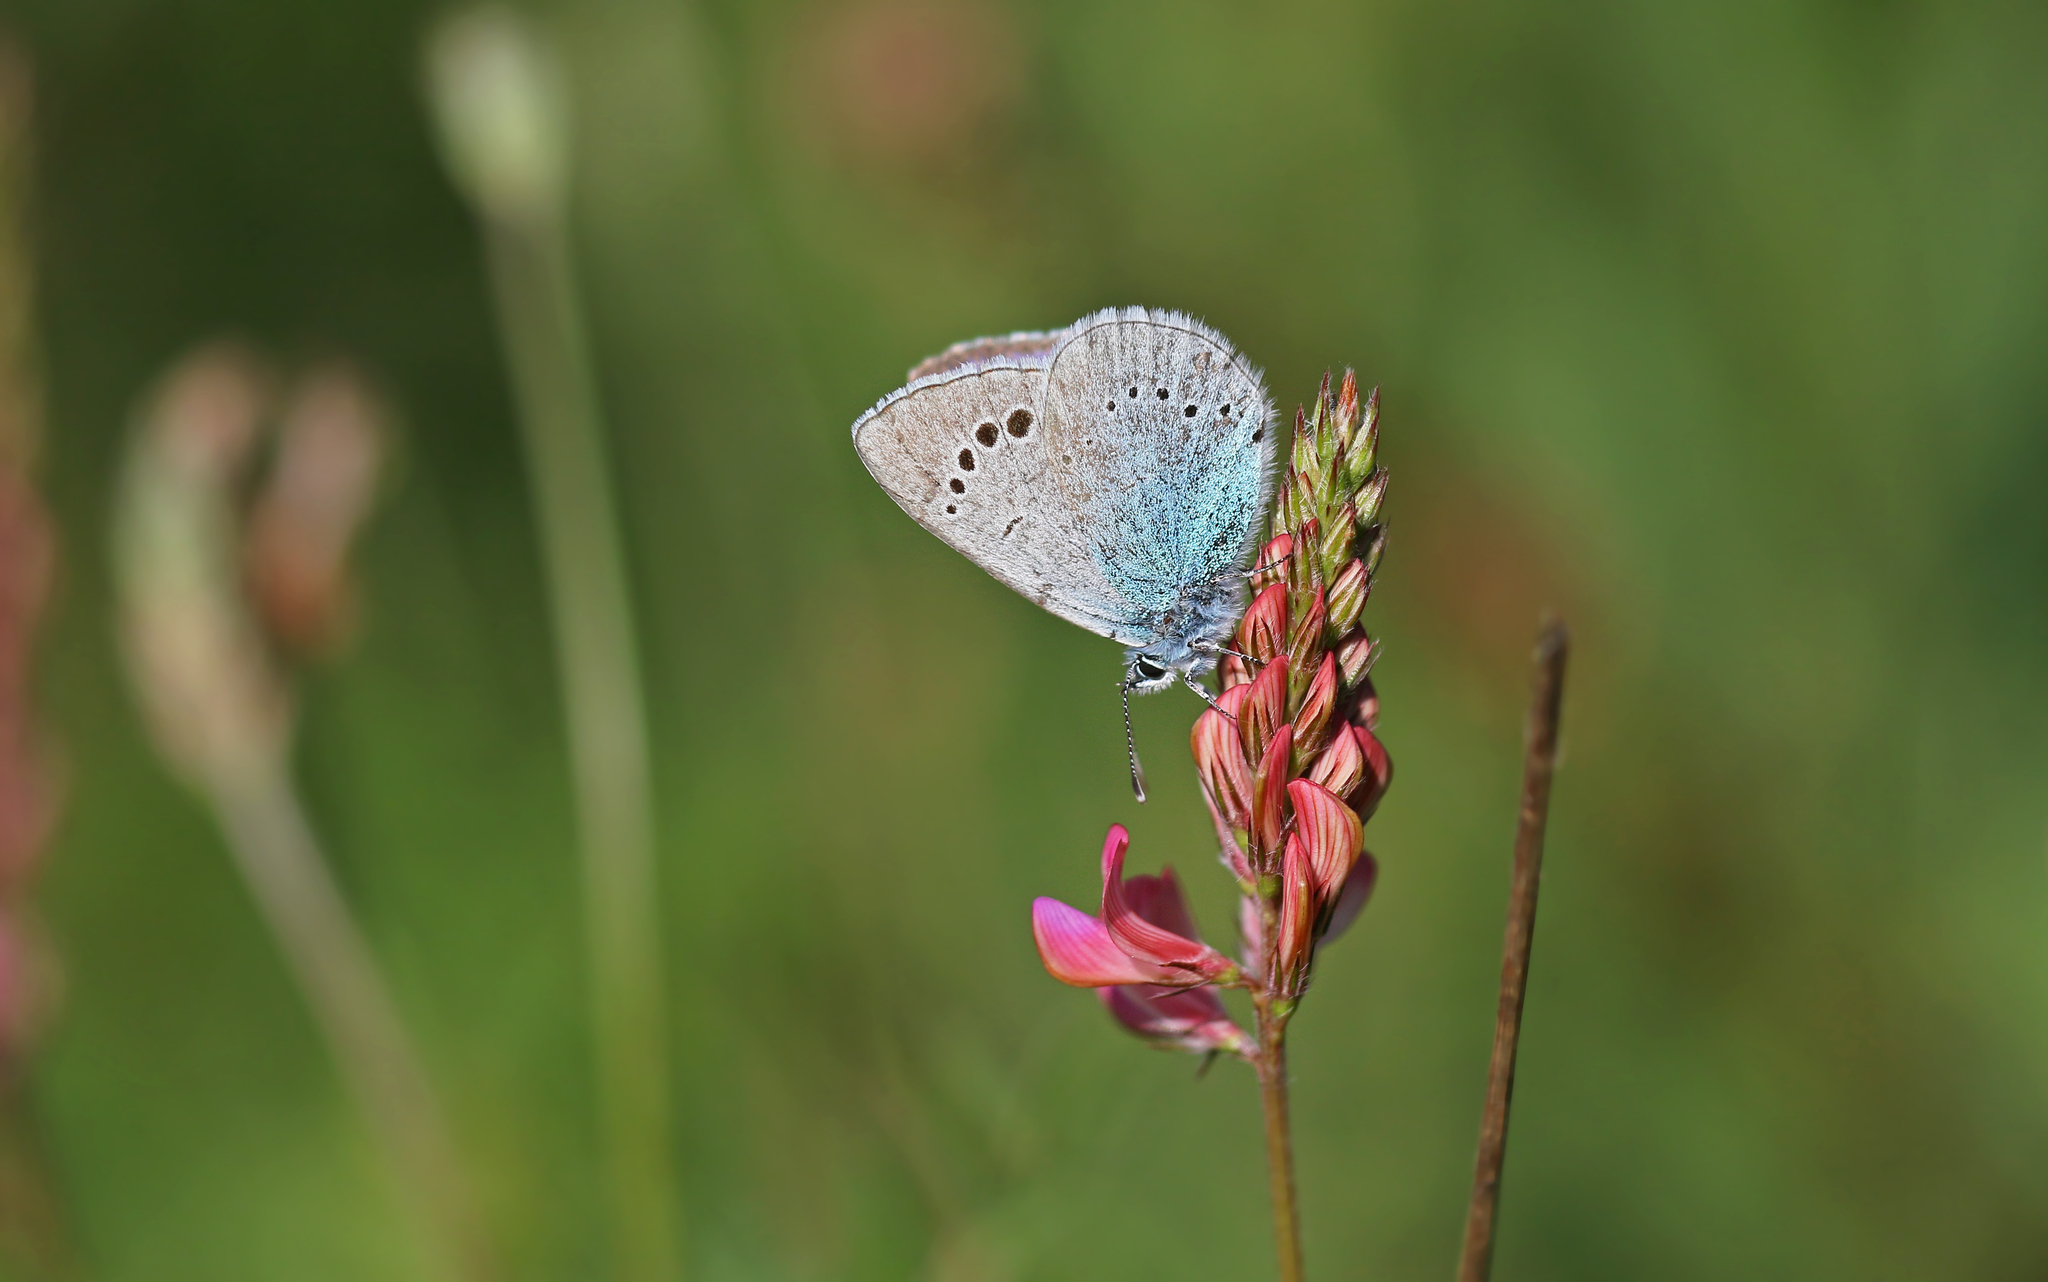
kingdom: Animalia
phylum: Arthropoda
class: Insecta
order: Lepidoptera
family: Lycaenidae
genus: Glaucopsyche
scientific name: Glaucopsyche alexis
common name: Green-underside blue
